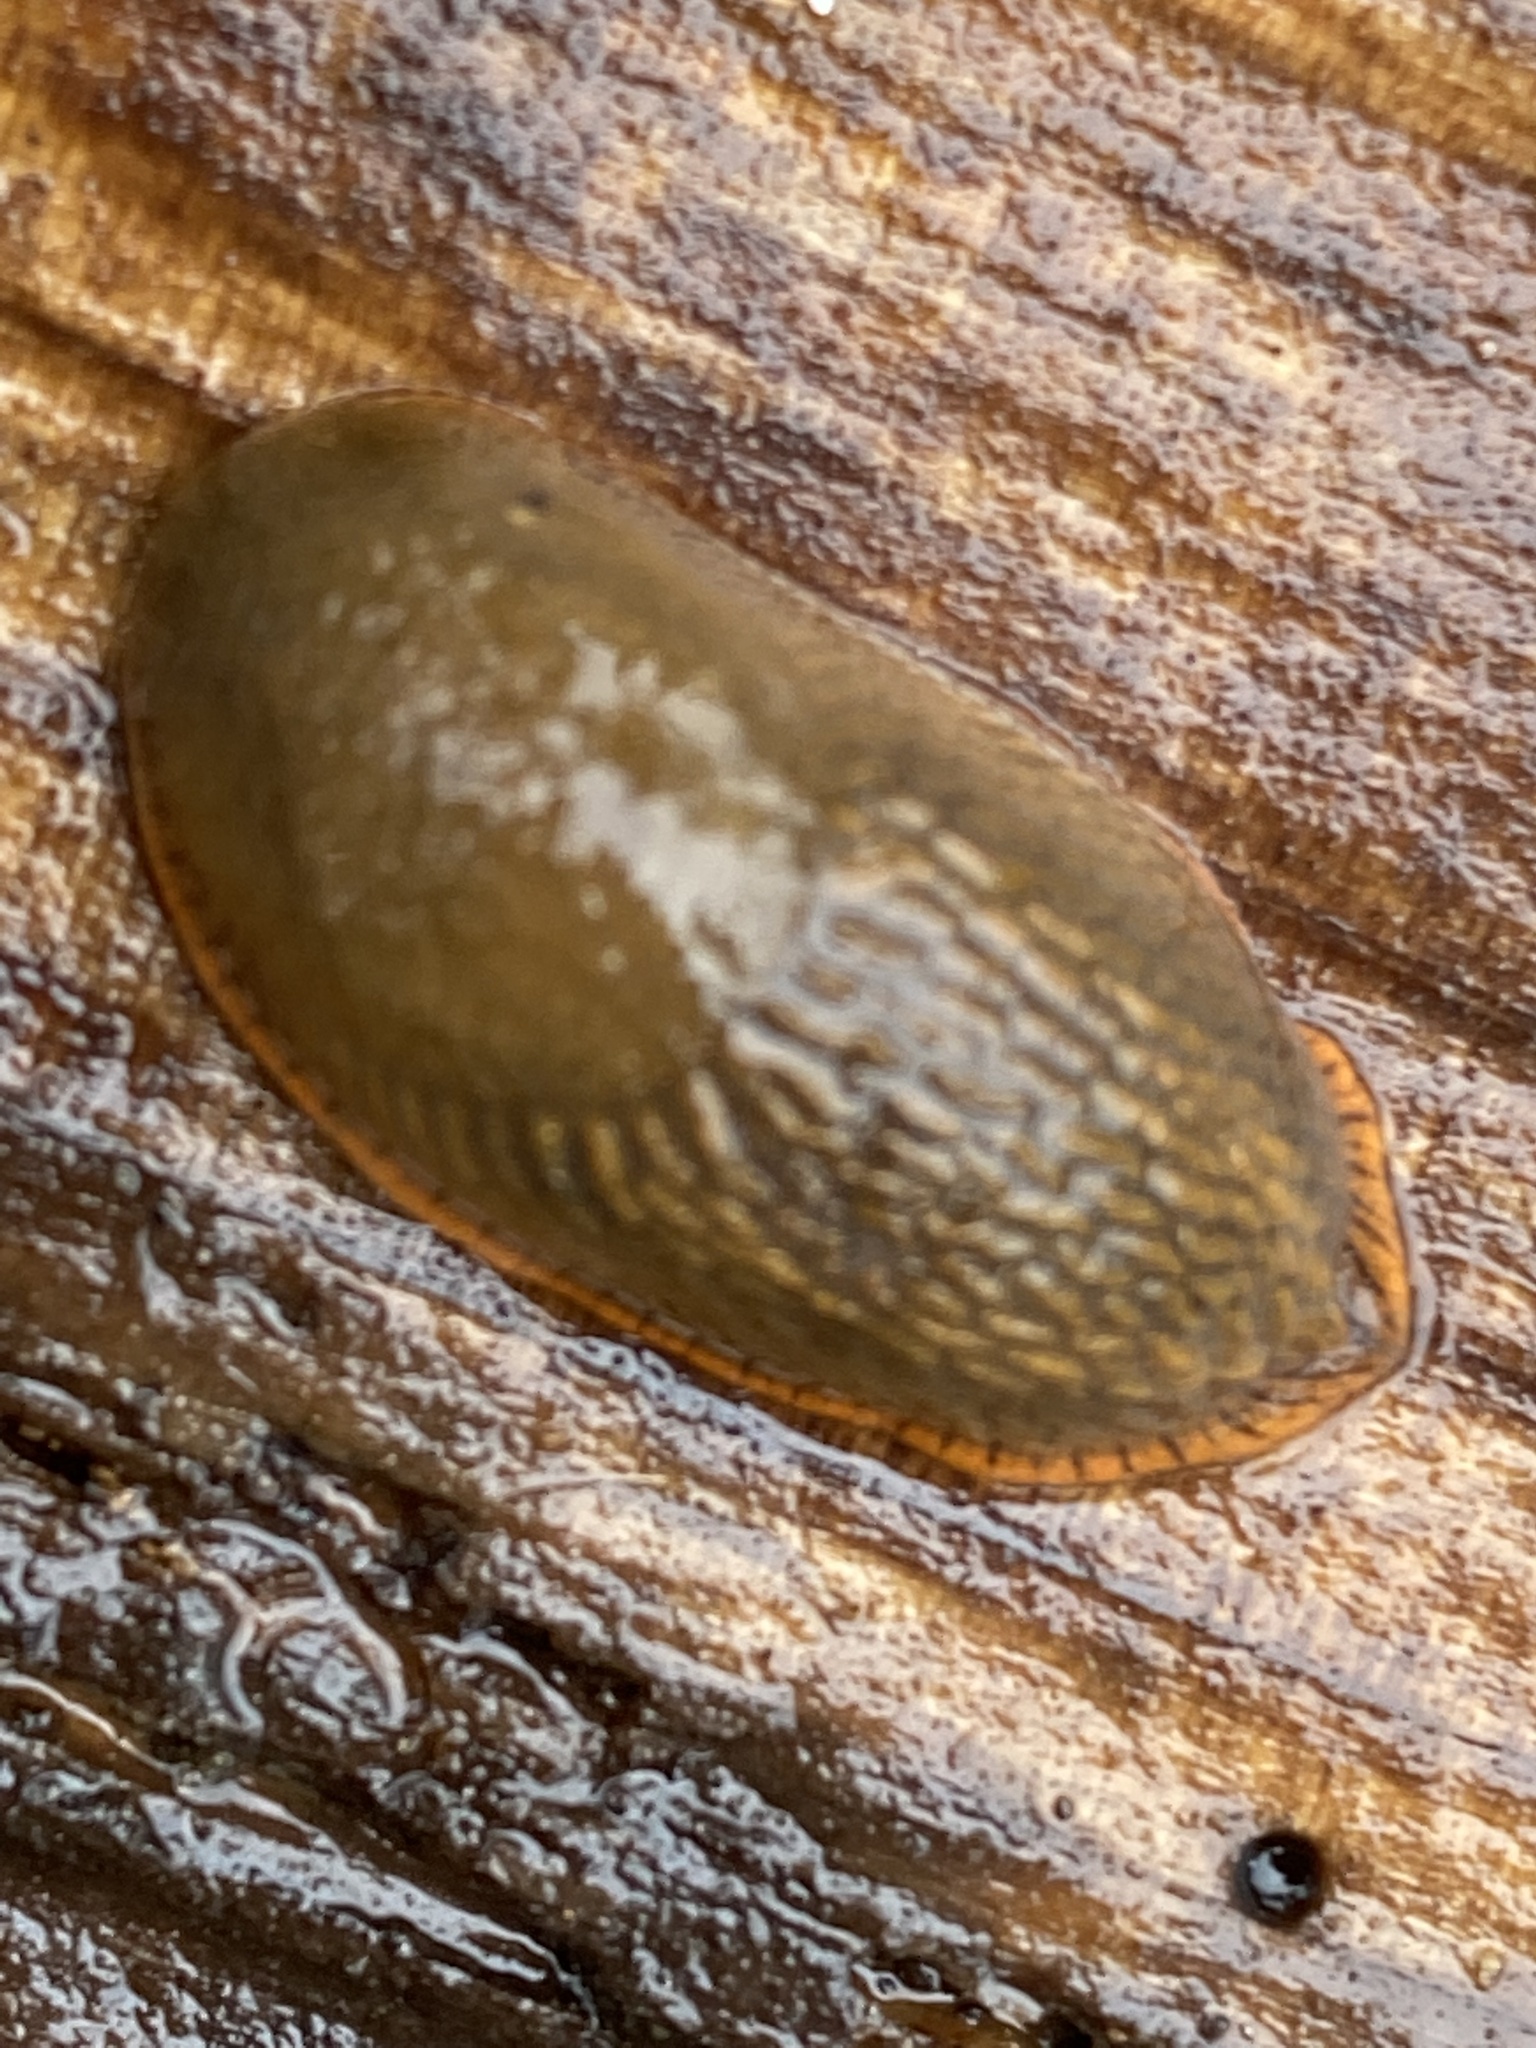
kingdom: Animalia
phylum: Mollusca
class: Gastropoda
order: Stylommatophora
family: Arionidae
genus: Arion
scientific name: Arion rufus
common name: Chocolate arion
